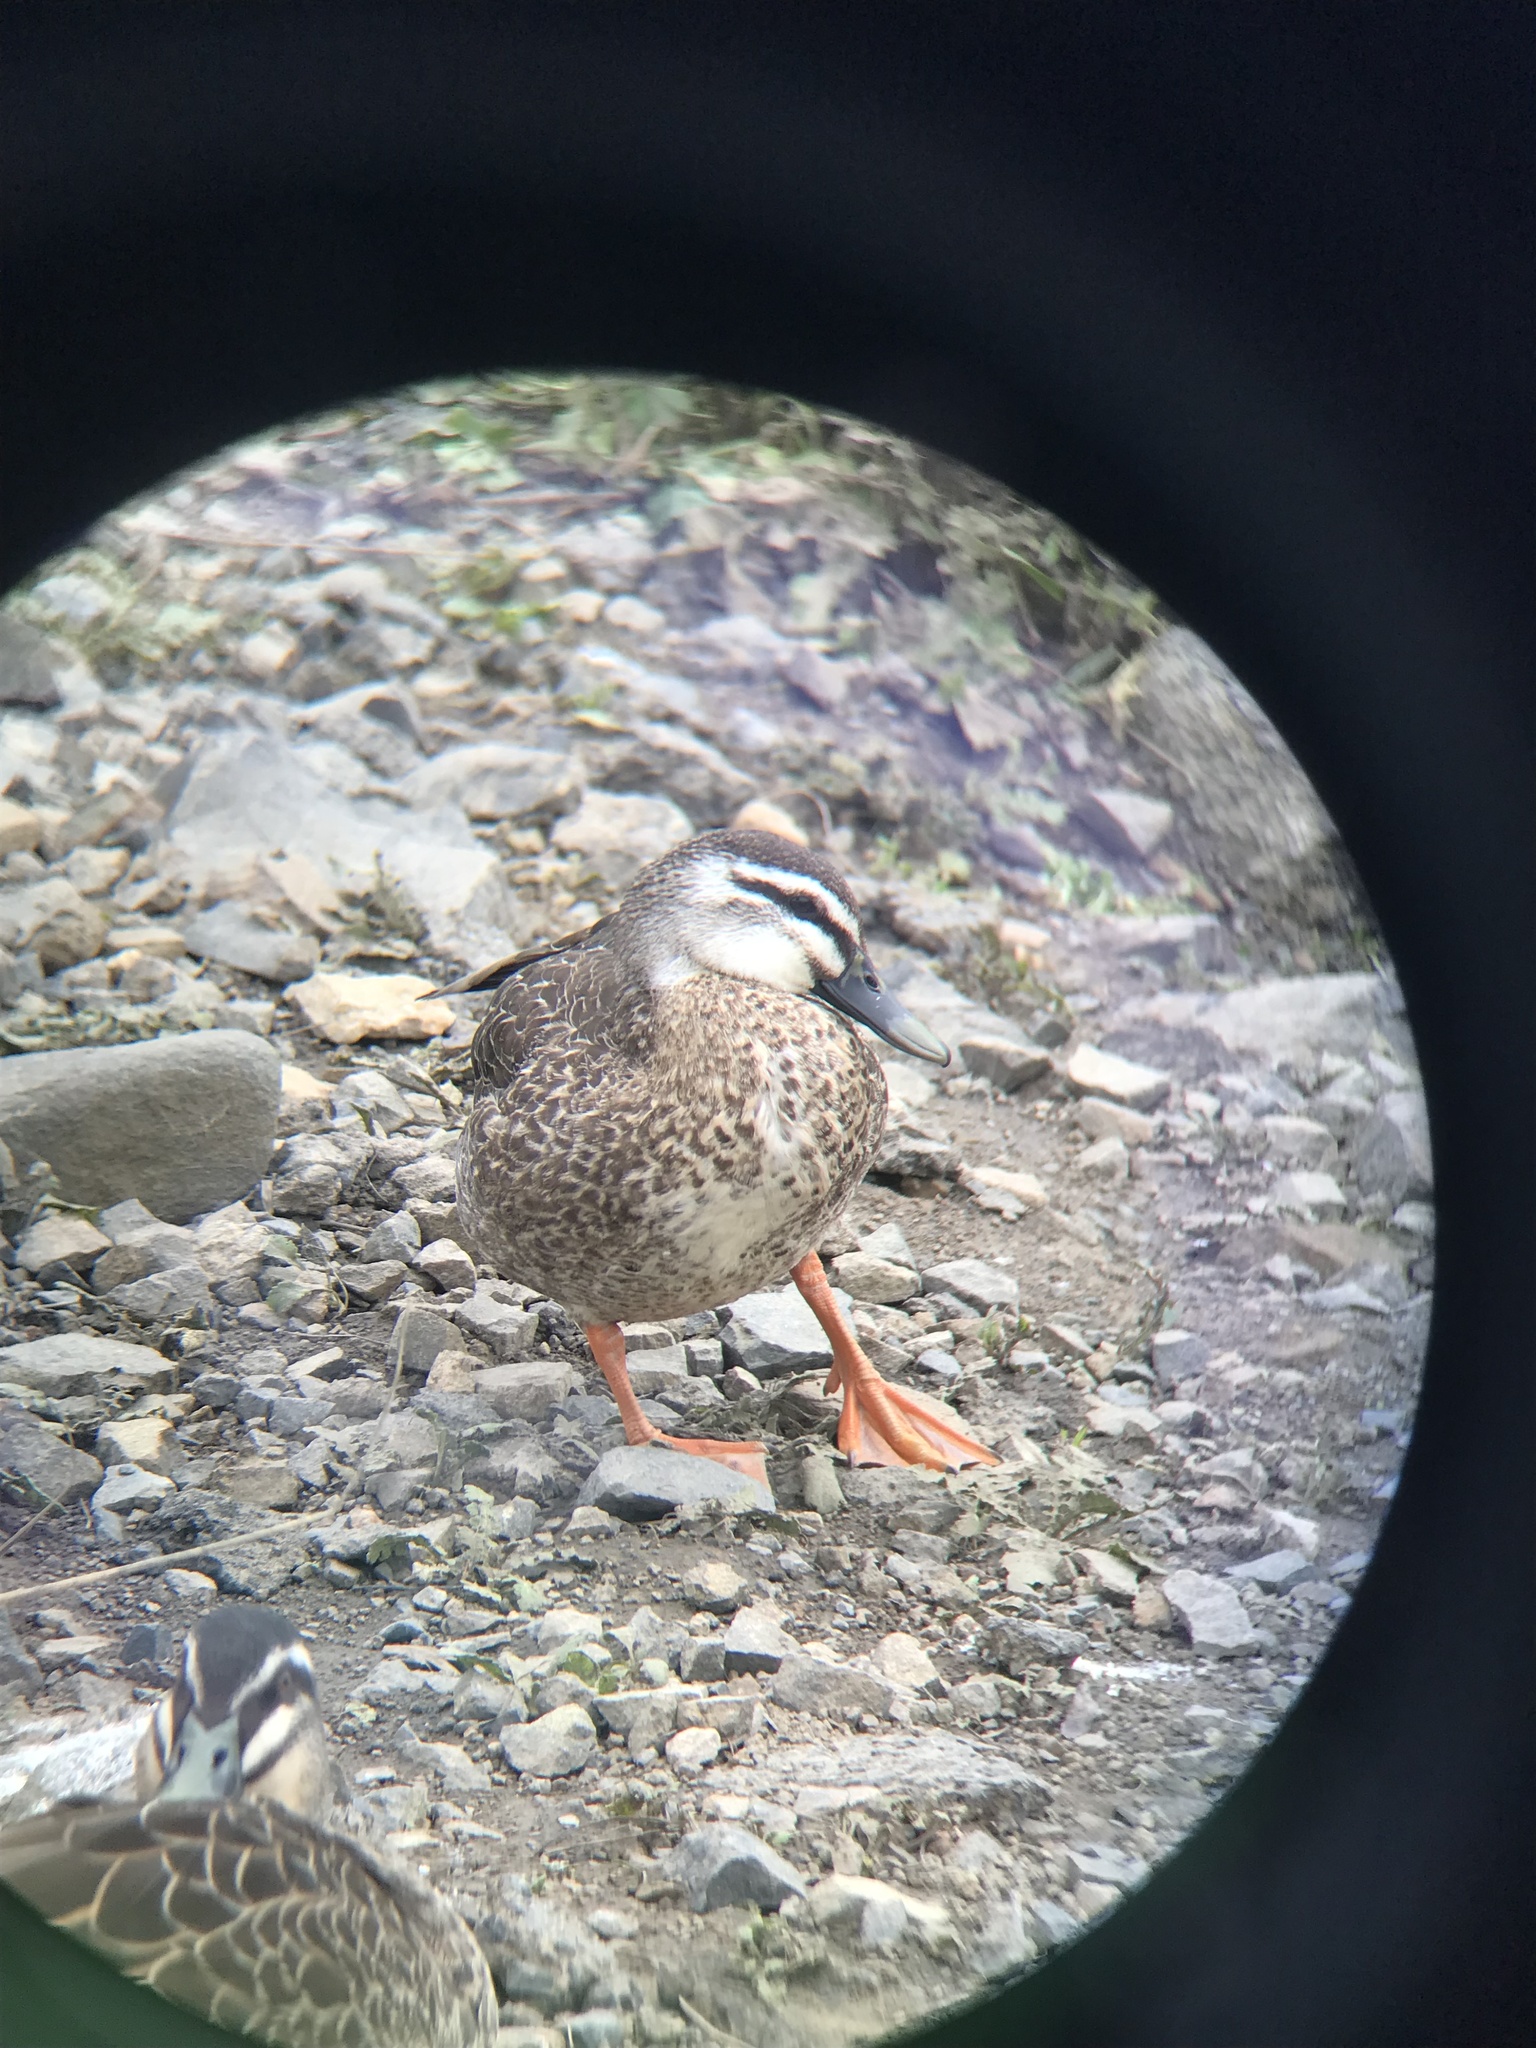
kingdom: Animalia
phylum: Chordata
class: Aves
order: Anseriformes
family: Anatidae
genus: Anas
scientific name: Anas
